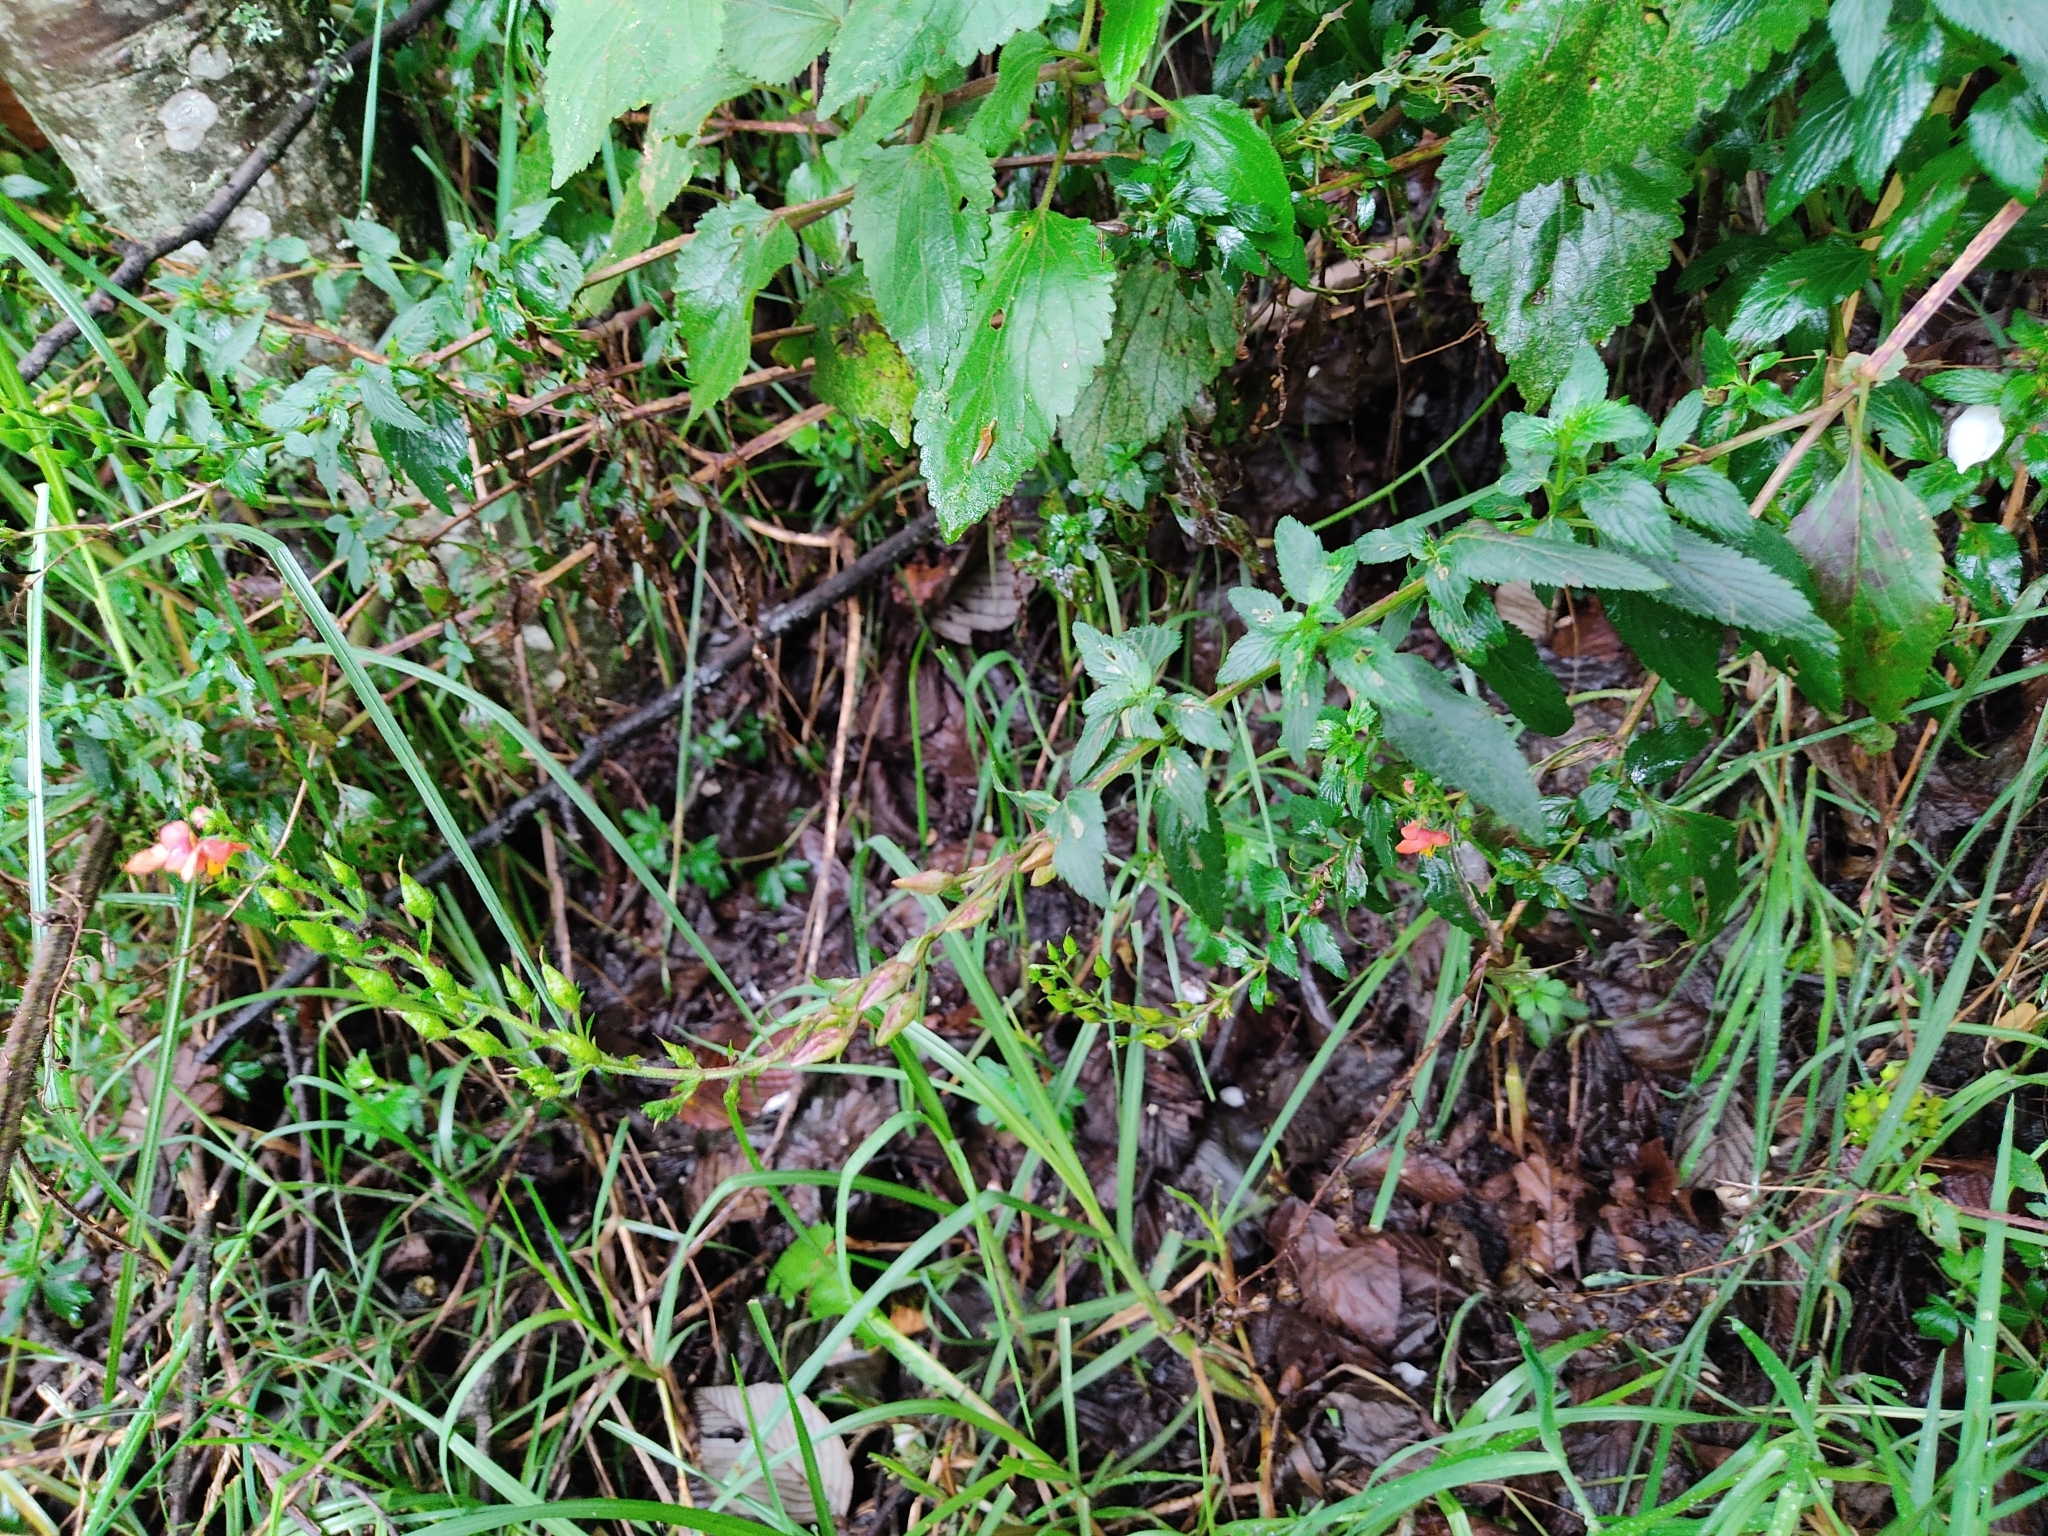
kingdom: Plantae
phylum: Tracheophyta
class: Magnoliopsida
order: Lamiales
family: Scrophulariaceae
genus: Alonsoa
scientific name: Alonsoa meridionalis
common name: Maskflower
